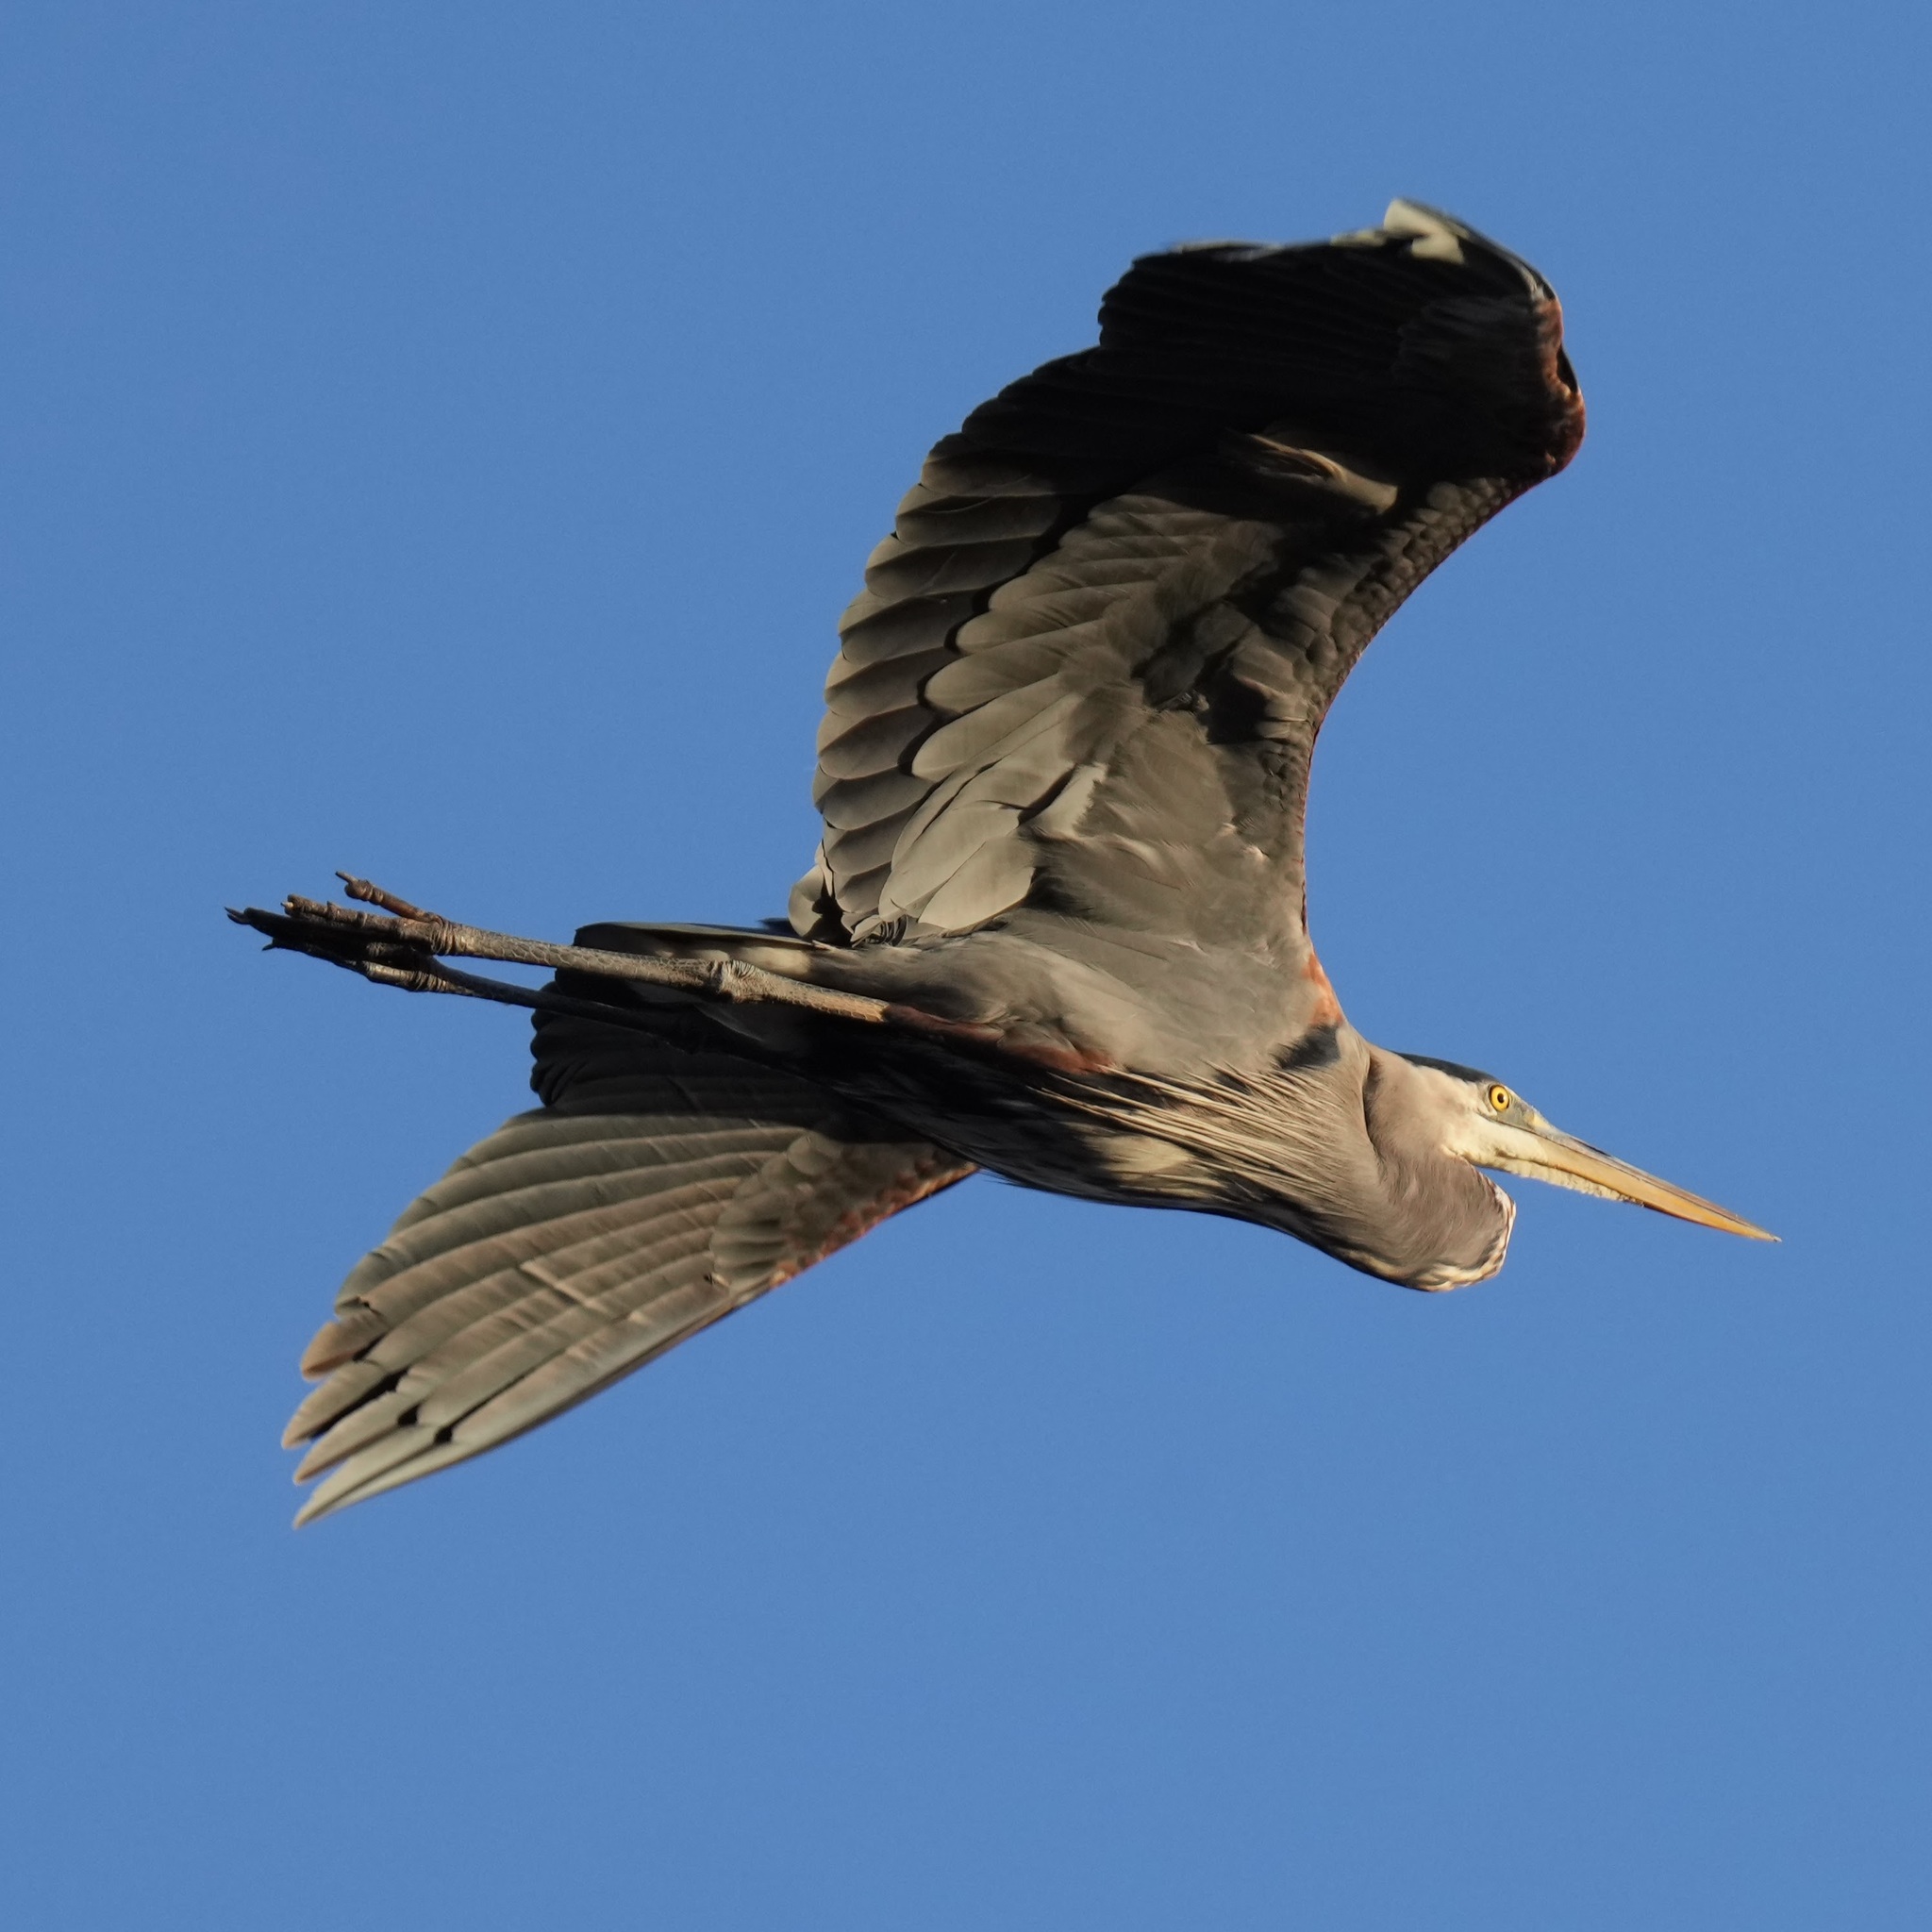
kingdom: Animalia
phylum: Chordata
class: Aves
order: Pelecaniformes
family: Ardeidae
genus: Ardea
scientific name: Ardea herodias
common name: Great blue heron
